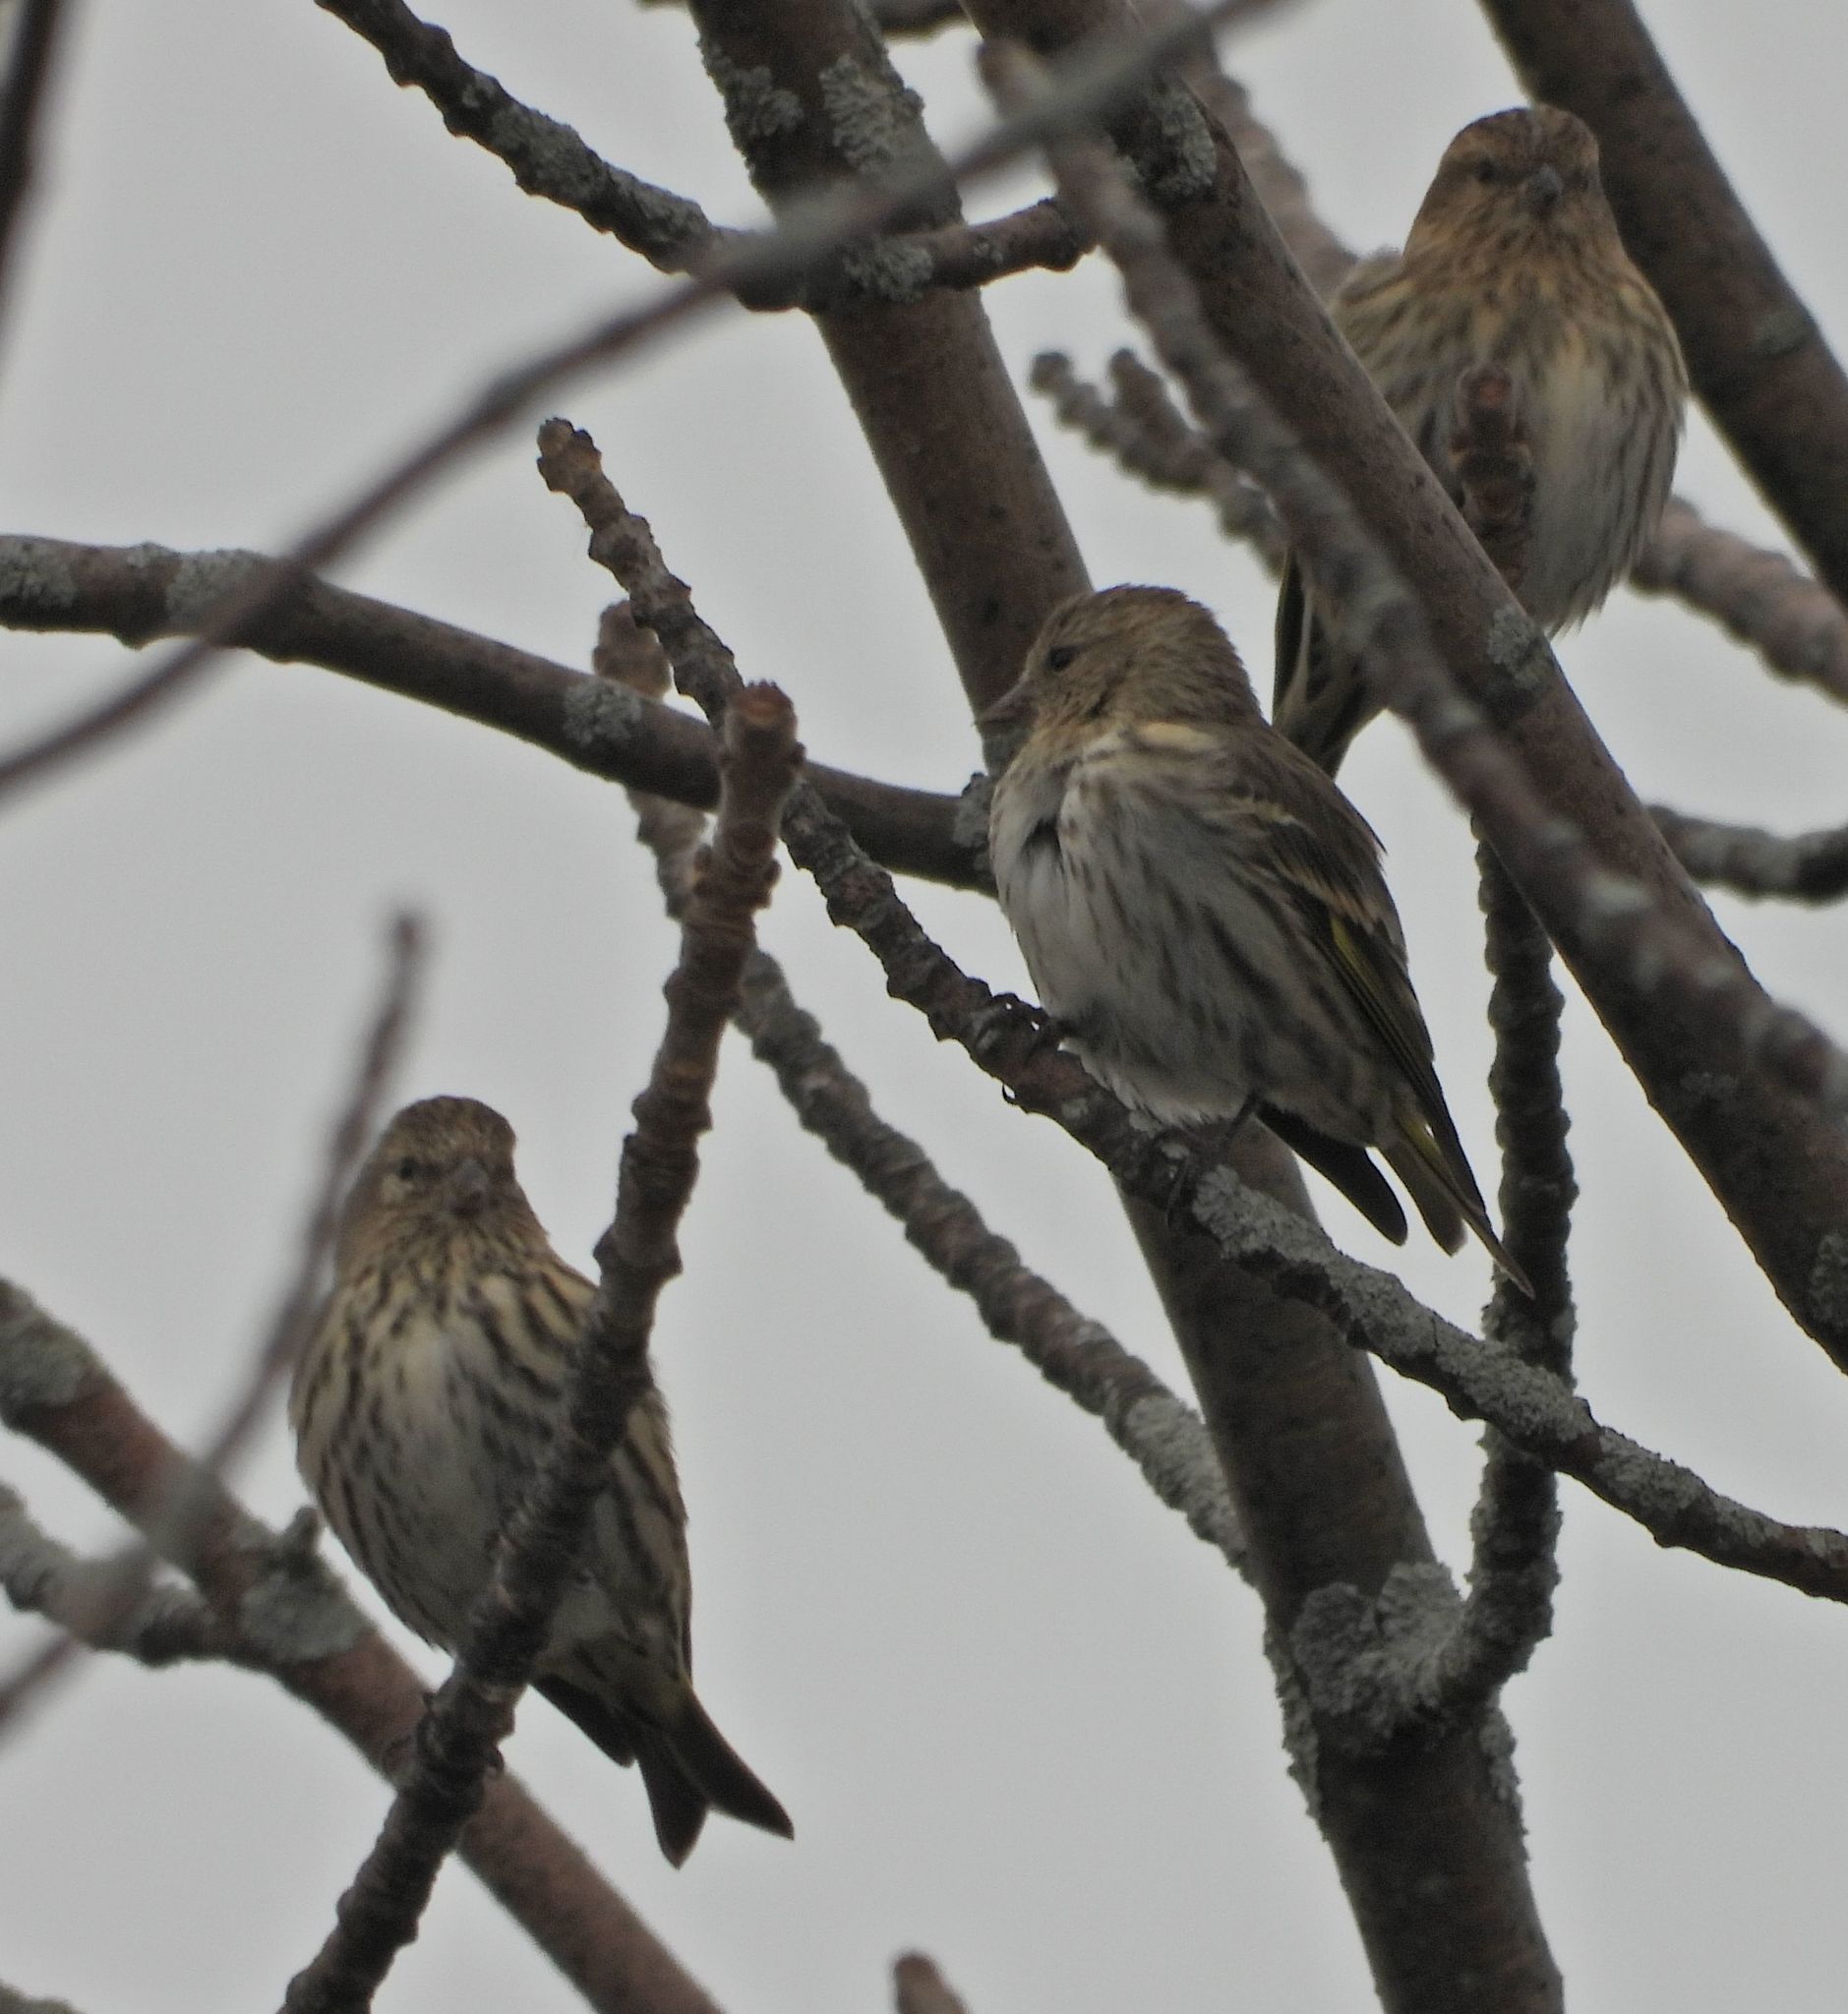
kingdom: Animalia
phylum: Chordata
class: Aves
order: Passeriformes
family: Fringillidae
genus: Spinus
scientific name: Spinus pinus
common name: Pine siskin
